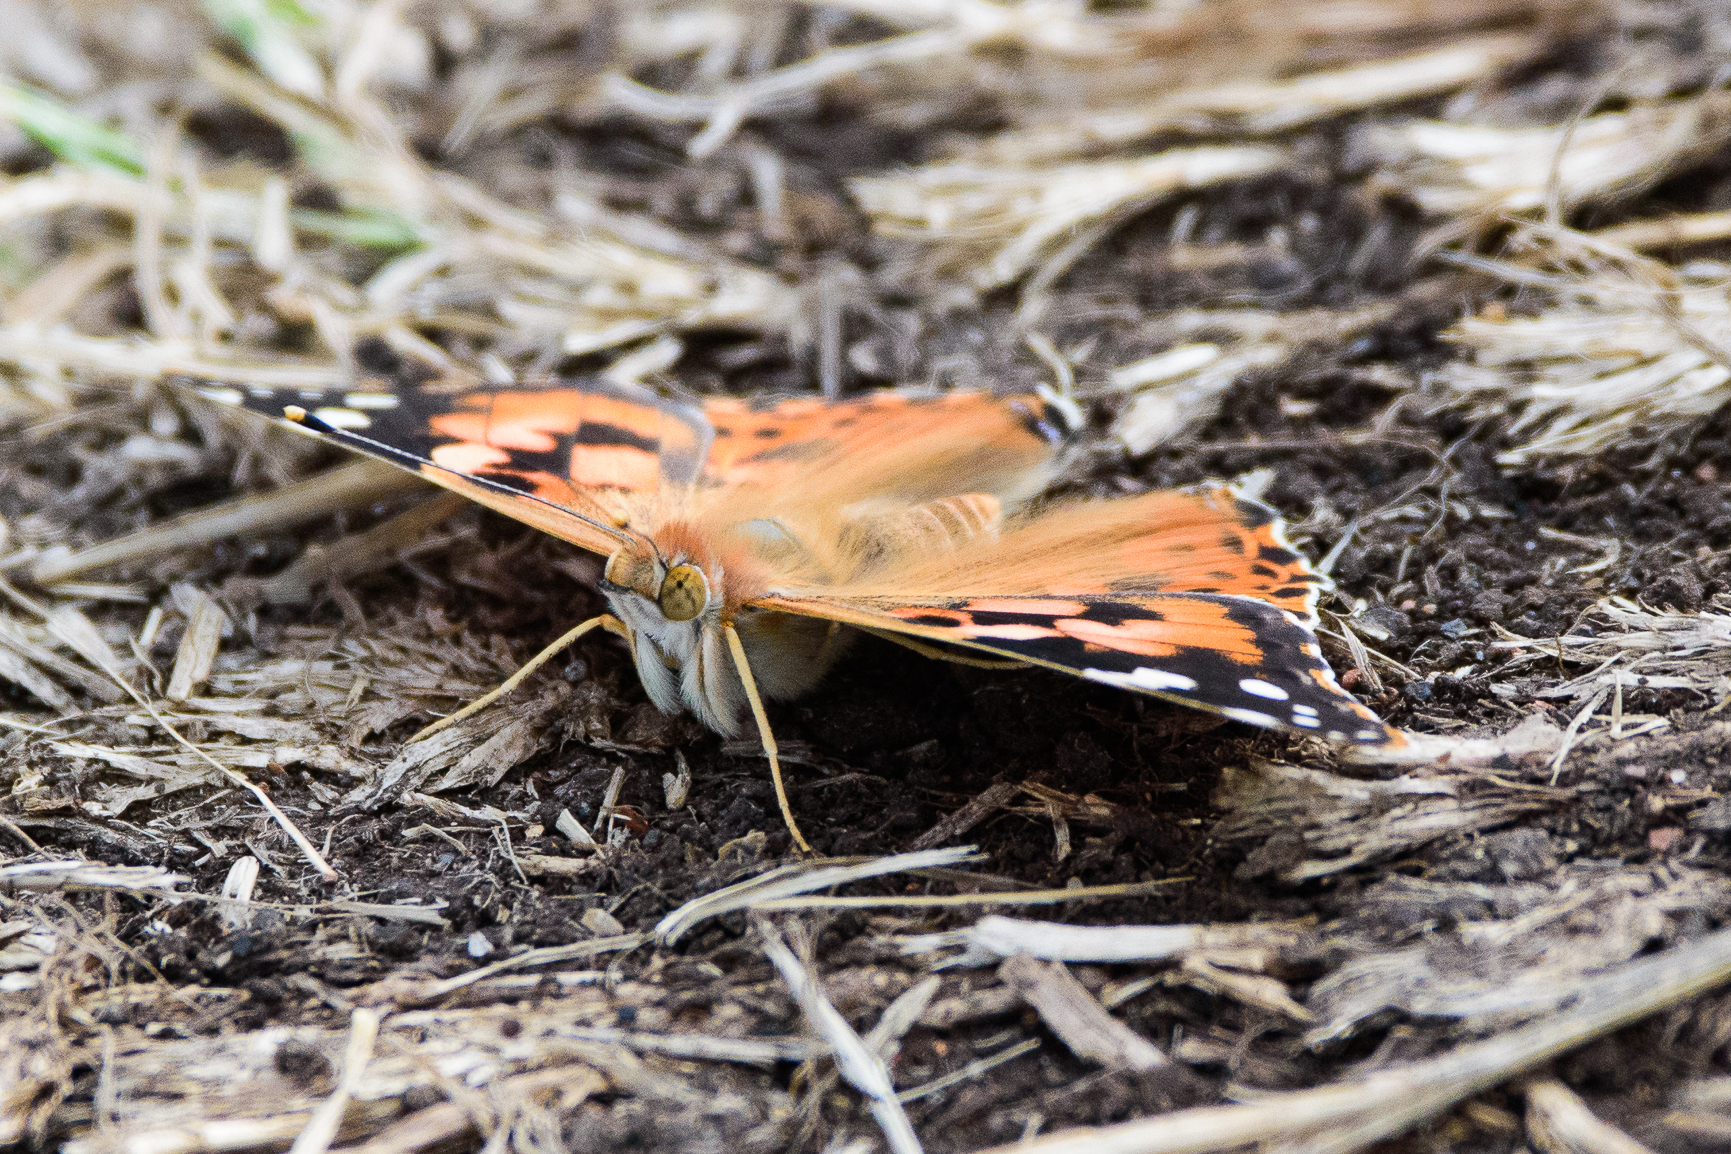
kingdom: Animalia
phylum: Arthropoda
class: Insecta
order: Lepidoptera
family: Nymphalidae
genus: Vanessa
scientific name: Vanessa cardui
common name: Painted lady
